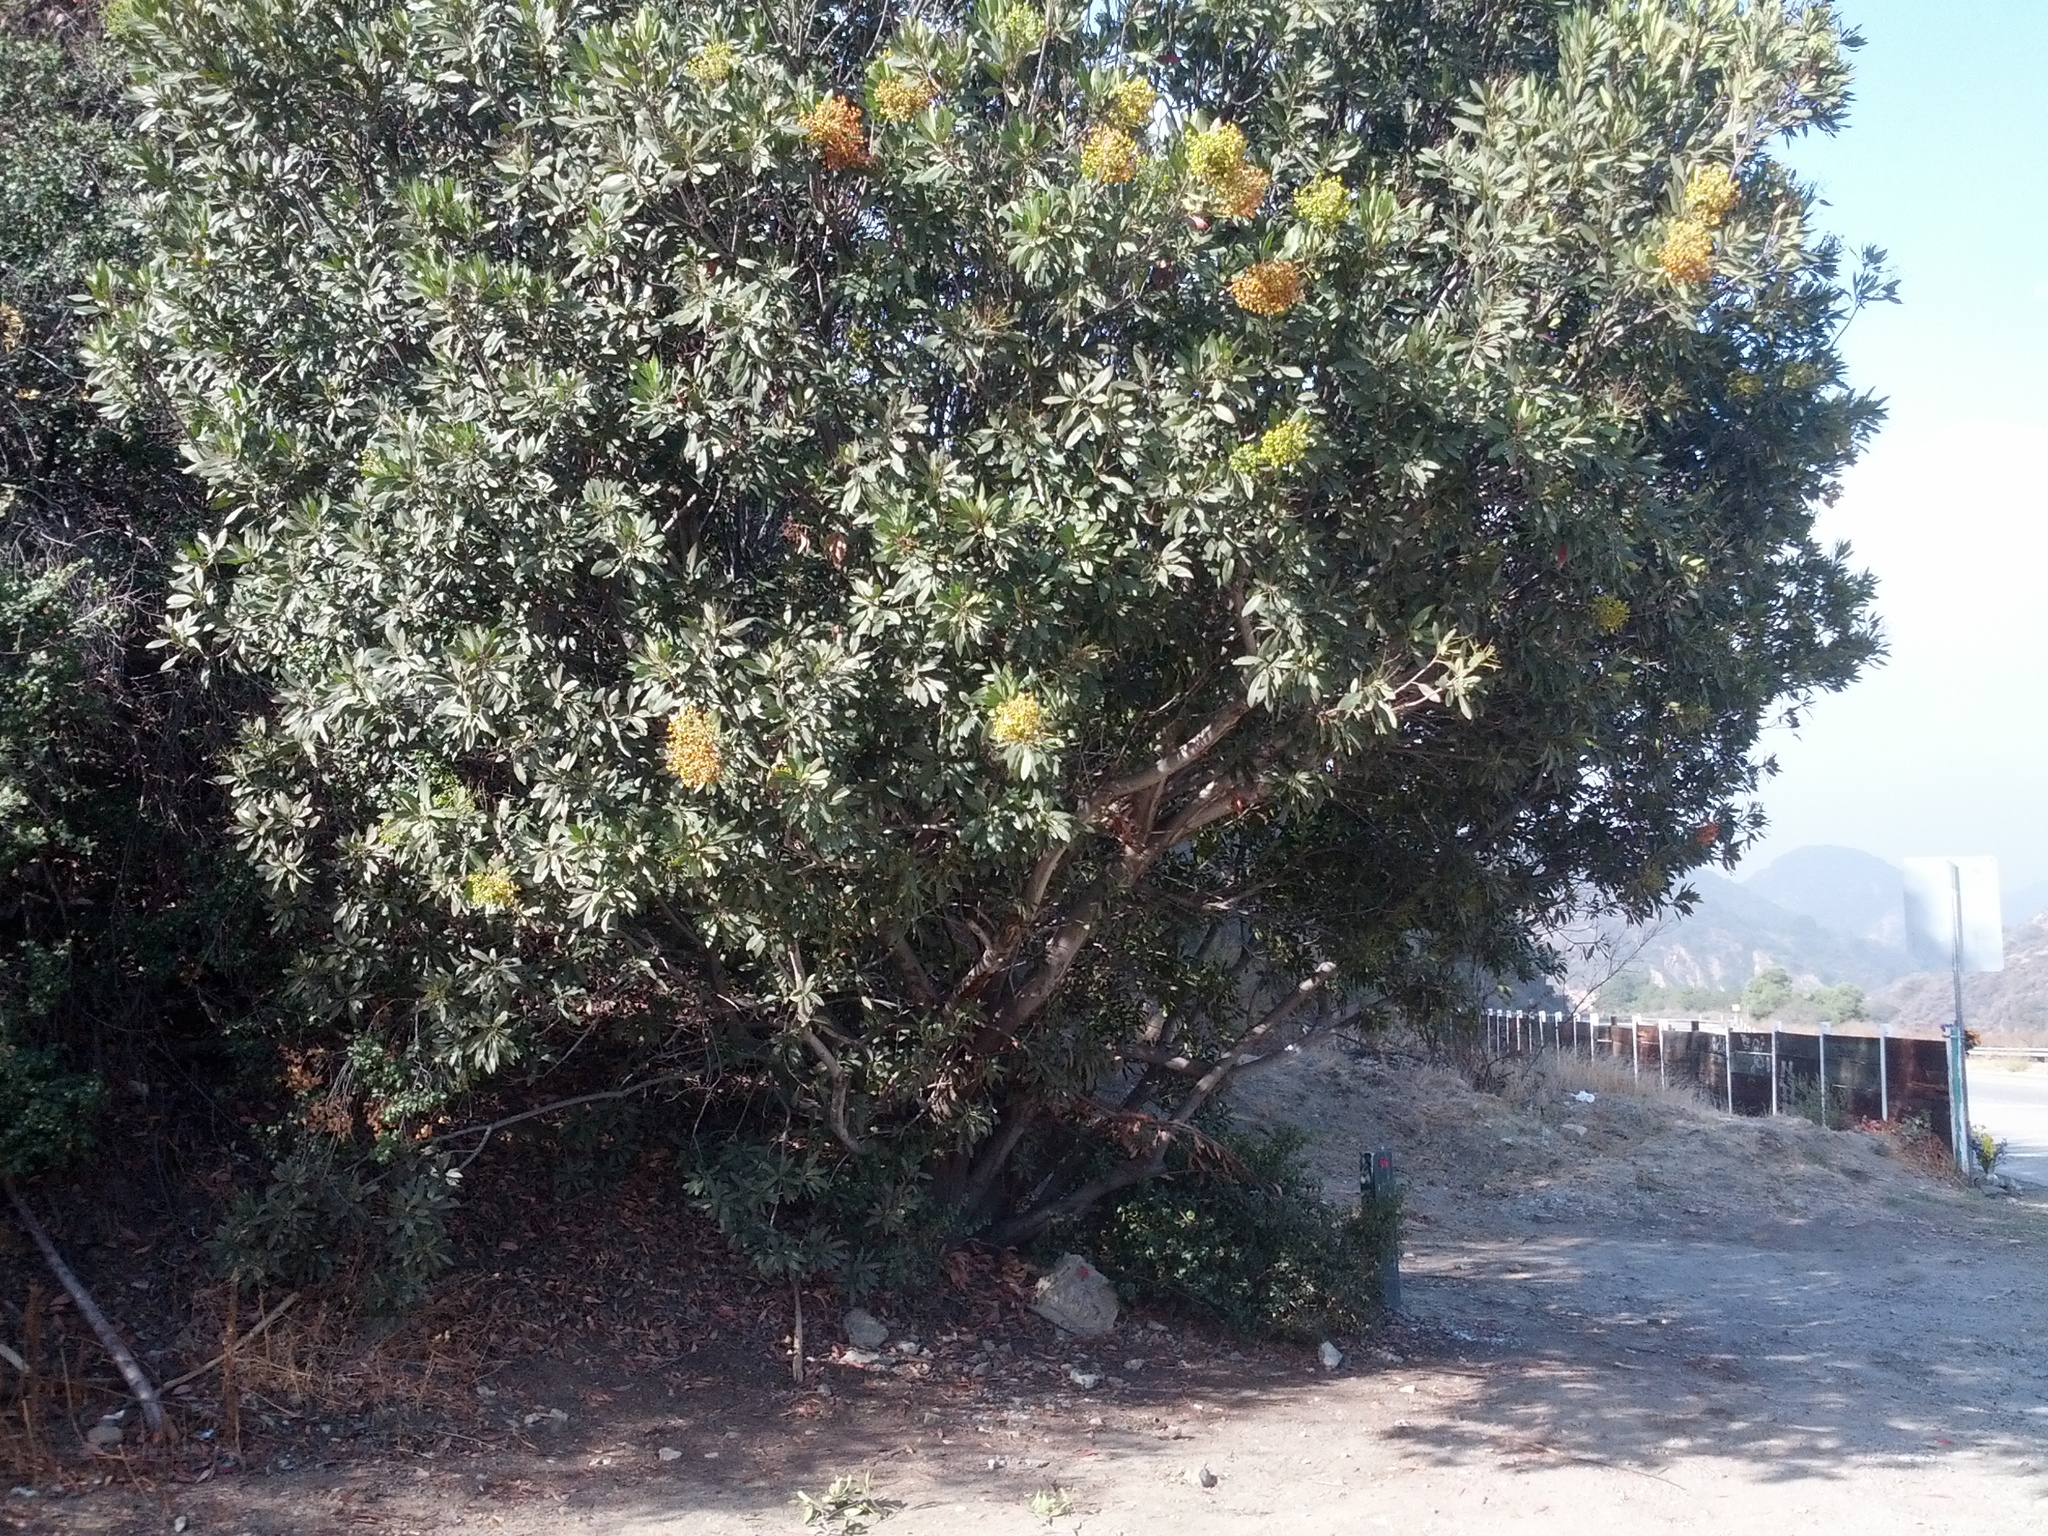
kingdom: Plantae
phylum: Tracheophyta
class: Magnoliopsida
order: Rosales
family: Rosaceae
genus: Heteromeles
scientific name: Heteromeles arbutifolia
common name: California-holly
